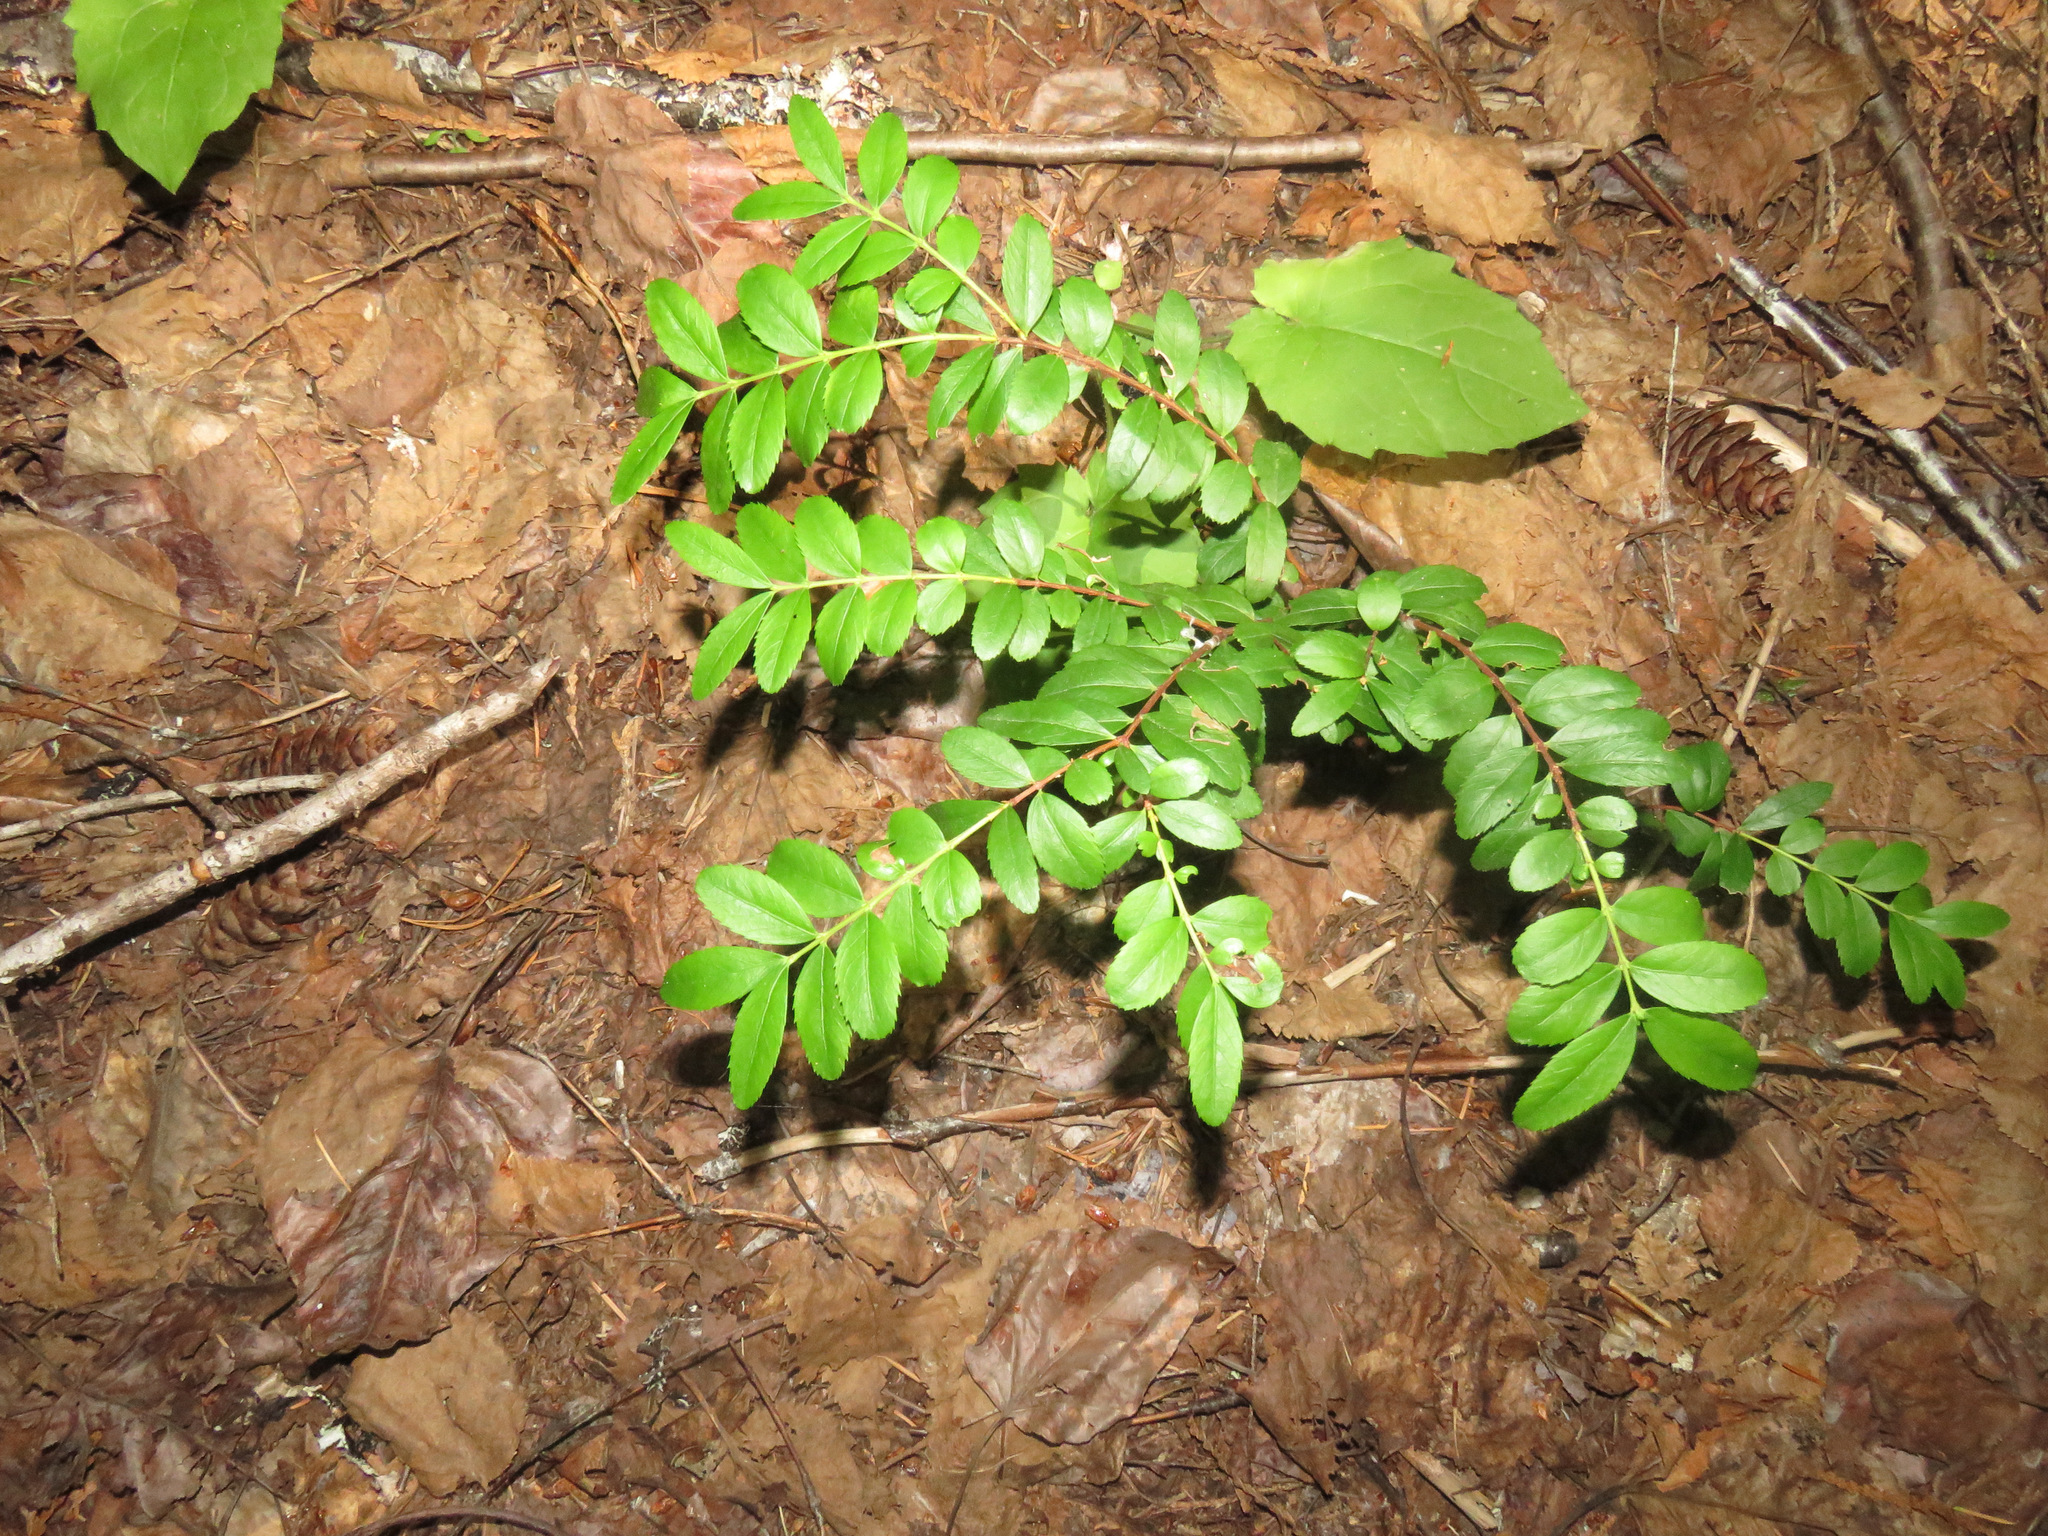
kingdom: Plantae
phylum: Tracheophyta
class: Magnoliopsida
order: Celastrales
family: Celastraceae
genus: Paxistima
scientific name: Paxistima myrsinites
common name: Mountain-lover
